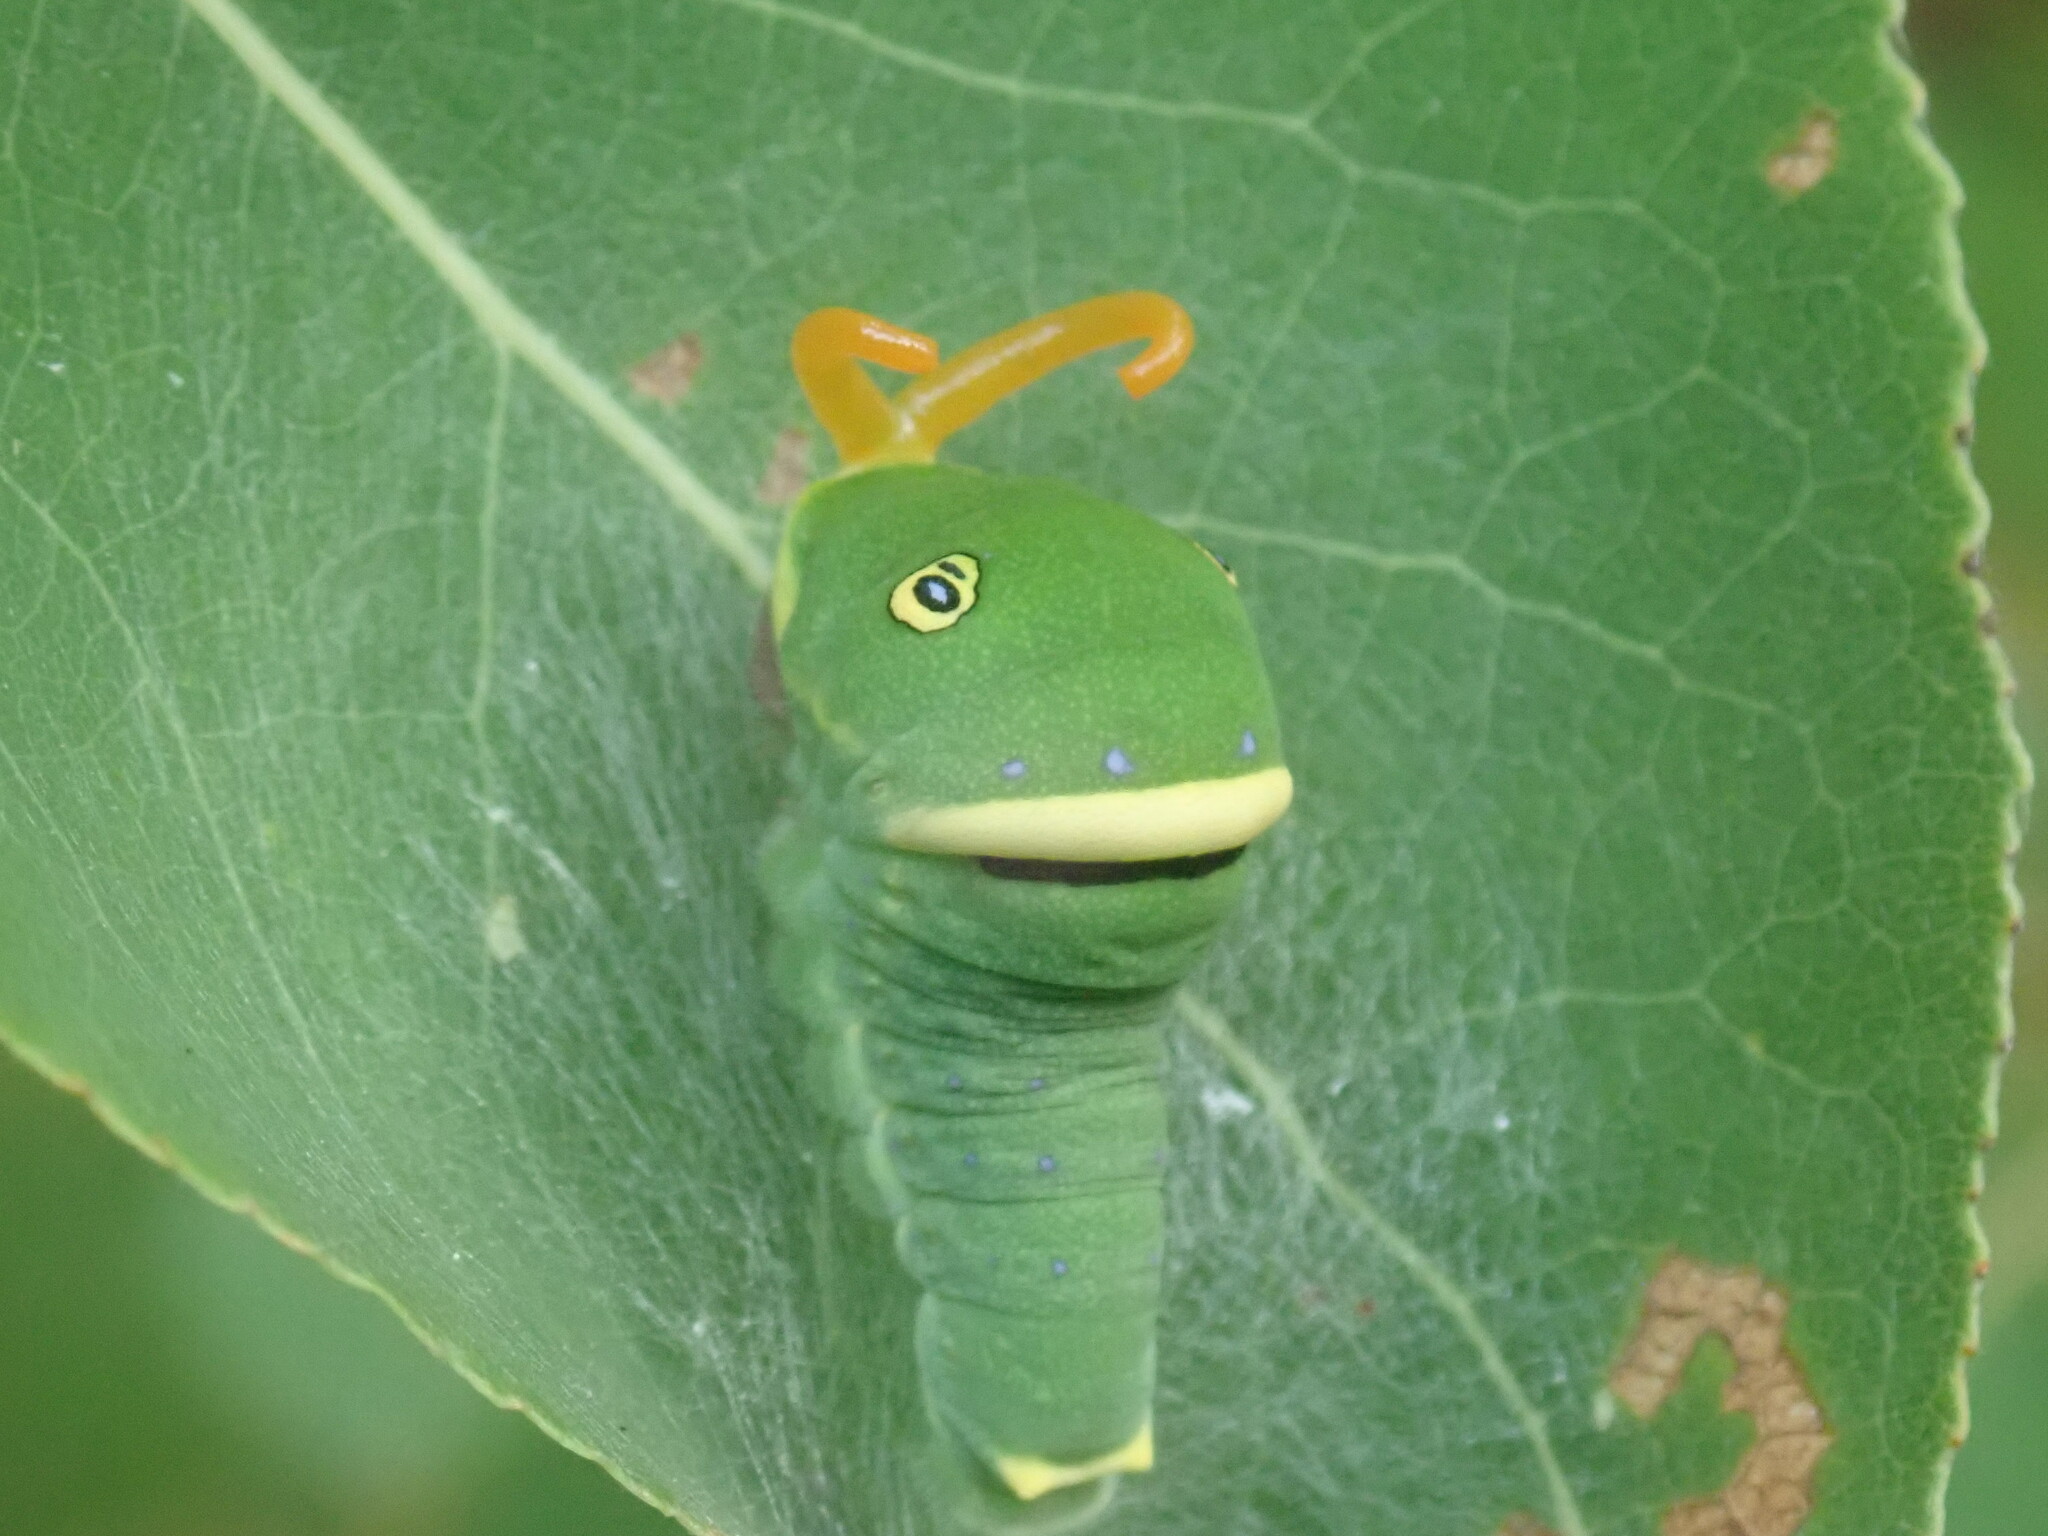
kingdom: Animalia
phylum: Arthropoda
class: Insecta
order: Lepidoptera
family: Papilionidae
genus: Papilio
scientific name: Papilio canadensis
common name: Canadian tiger swallowtail
